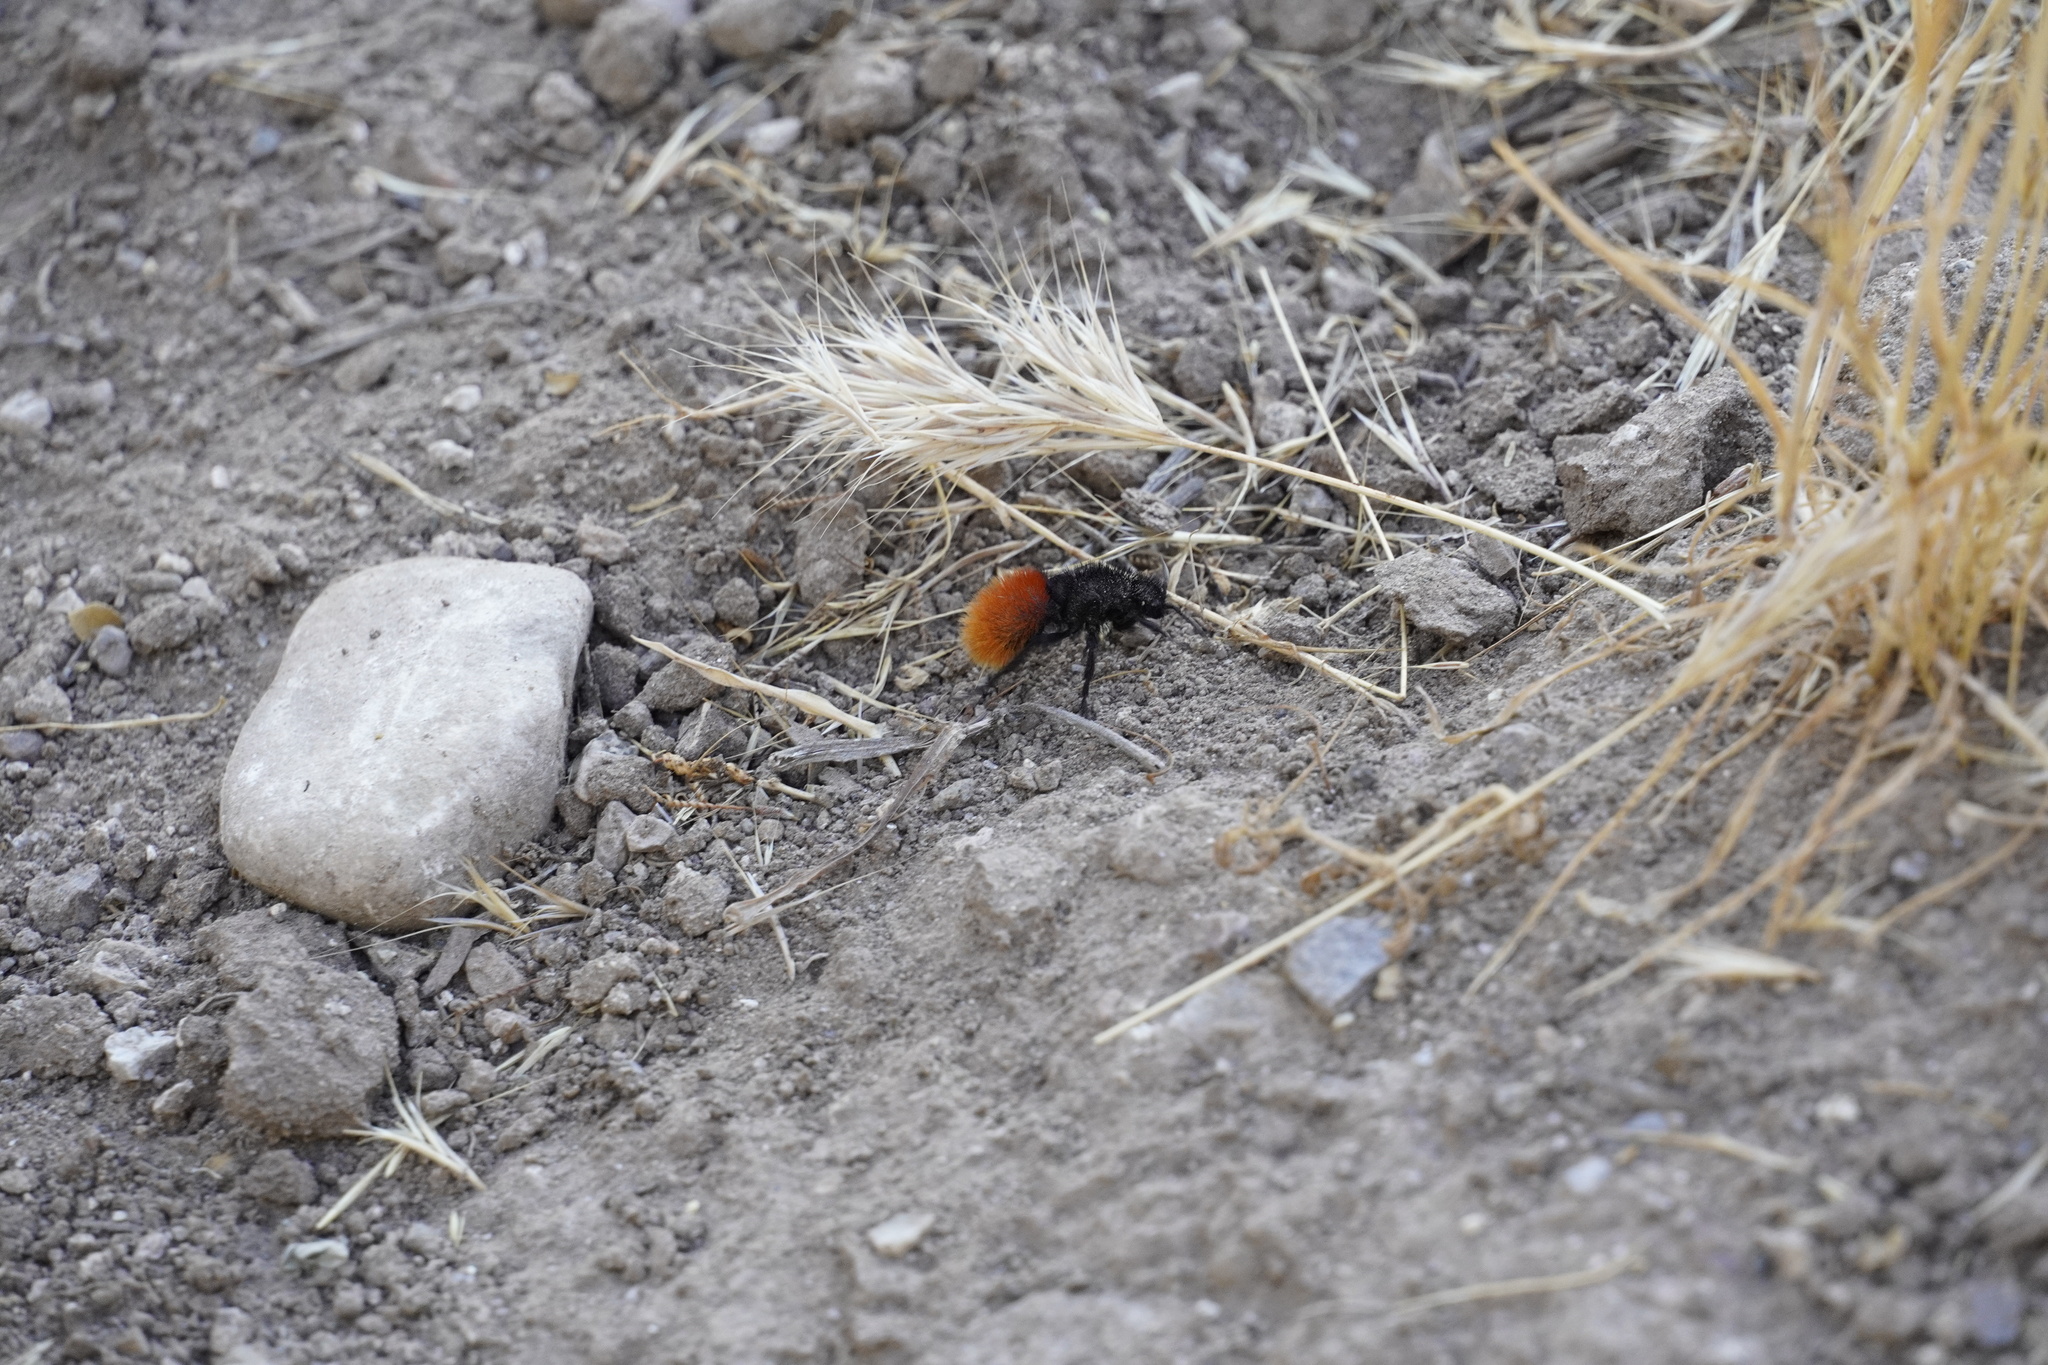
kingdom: Animalia
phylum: Arthropoda
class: Insecta
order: Hymenoptera
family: Mutillidae
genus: Dasymutilla
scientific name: Dasymutilla magnifica
